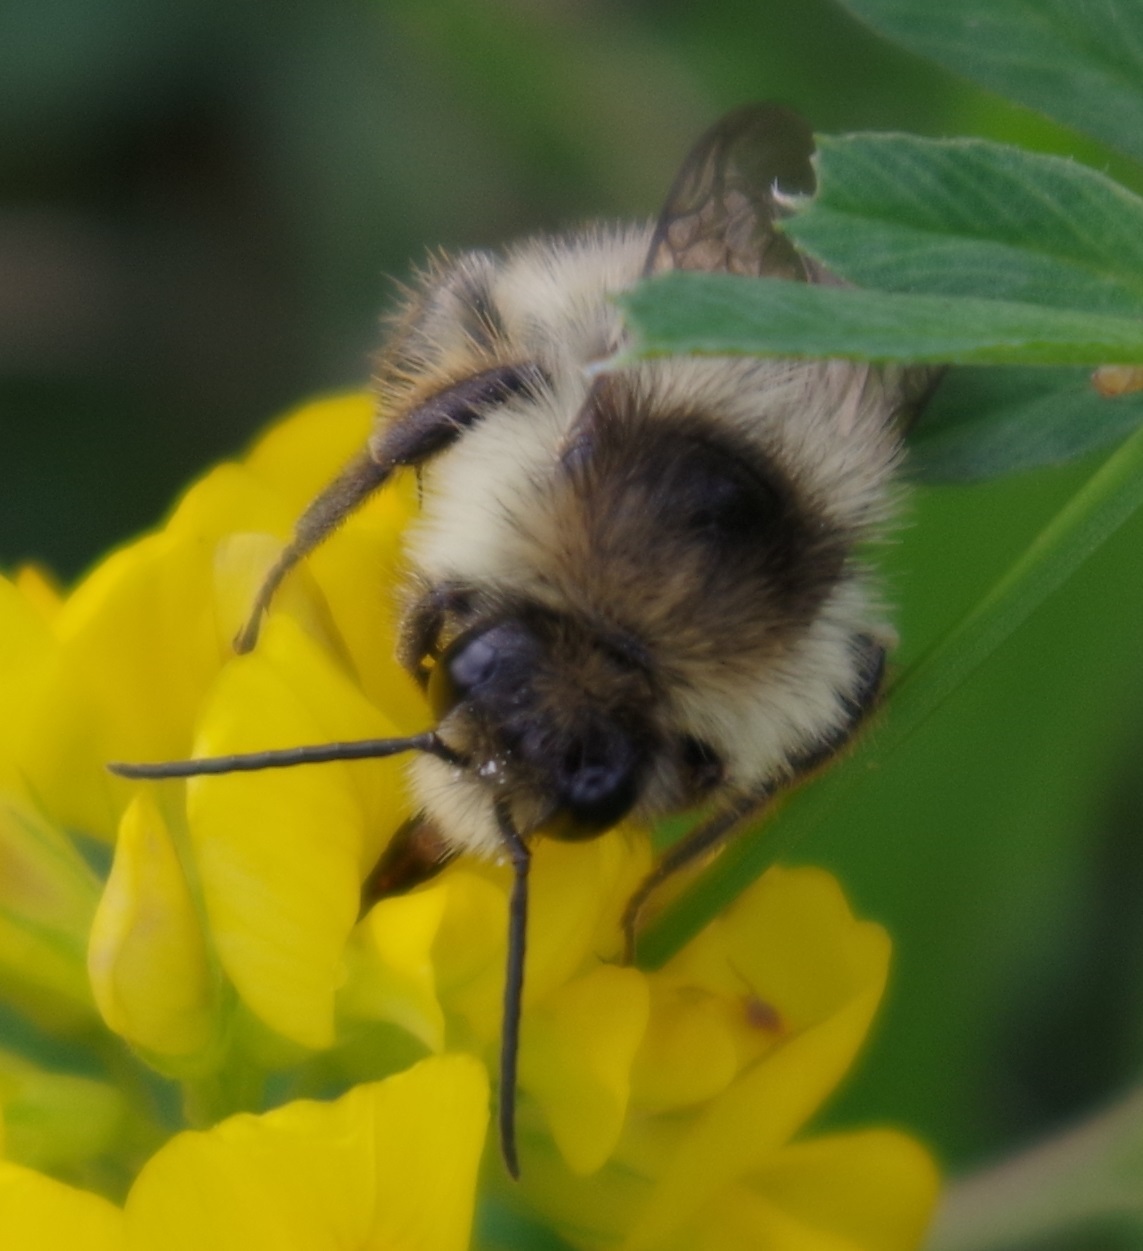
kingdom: Animalia
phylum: Arthropoda
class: Insecta
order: Hymenoptera
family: Apidae
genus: Bombus
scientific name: Bombus sylvarum
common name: Shrill carder bee
